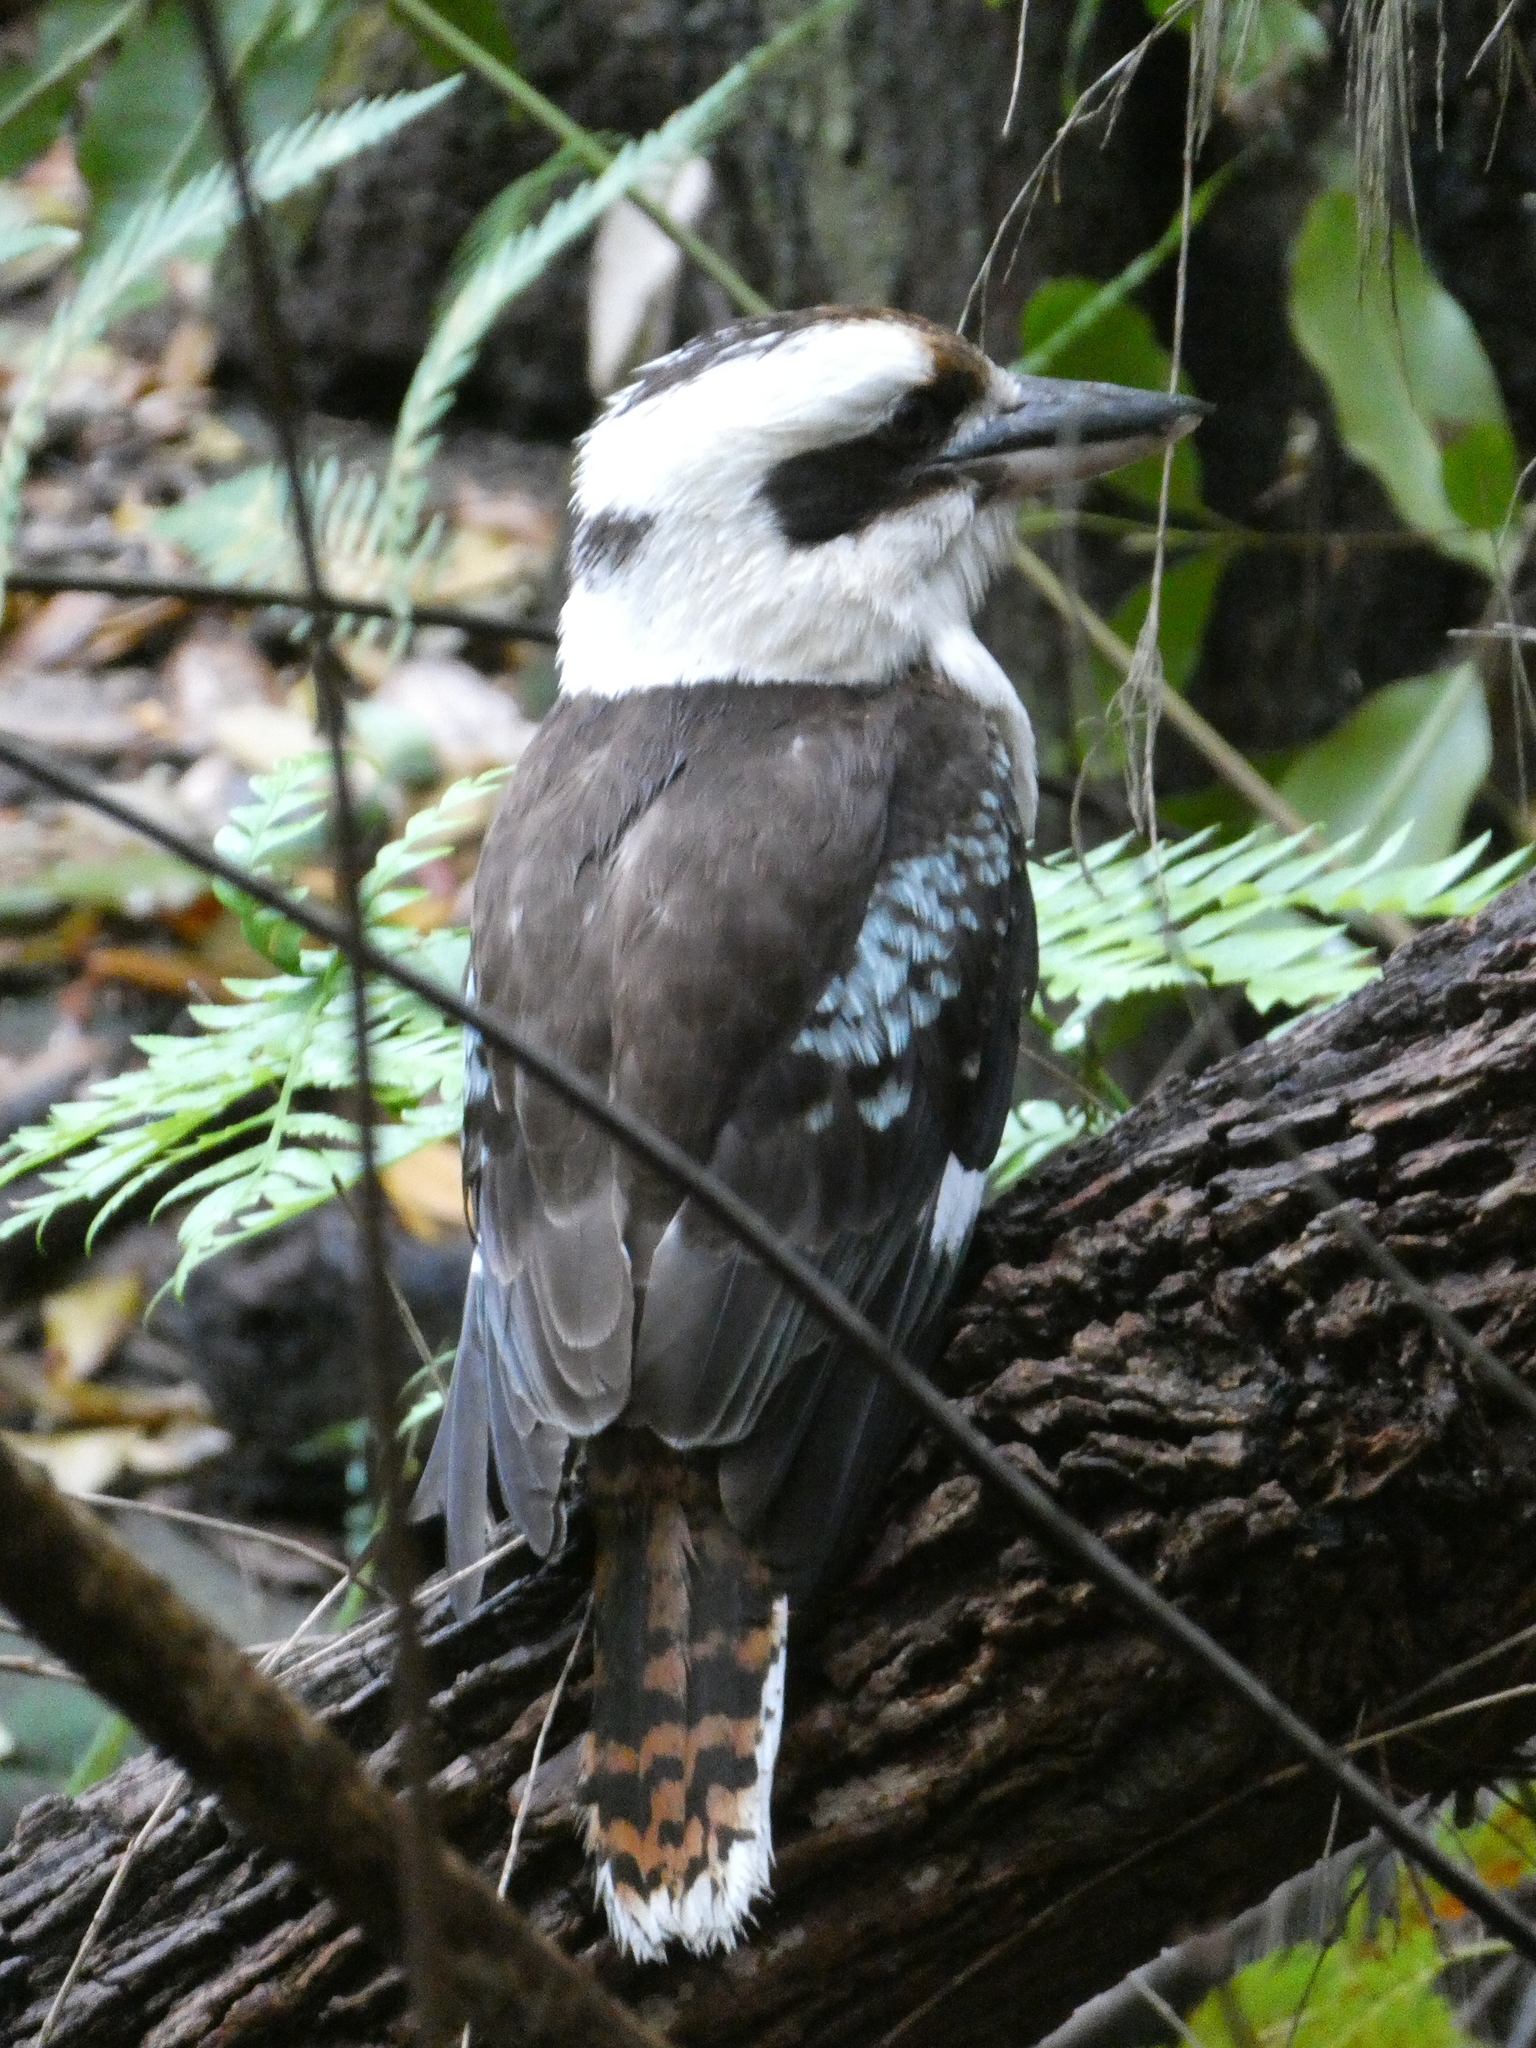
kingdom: Animalia
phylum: Chordata
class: Aves
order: Coraciiformes
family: Alcedinidae
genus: Dacelo
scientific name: Dacelo novaeguineae
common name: Laughing kookaburra
